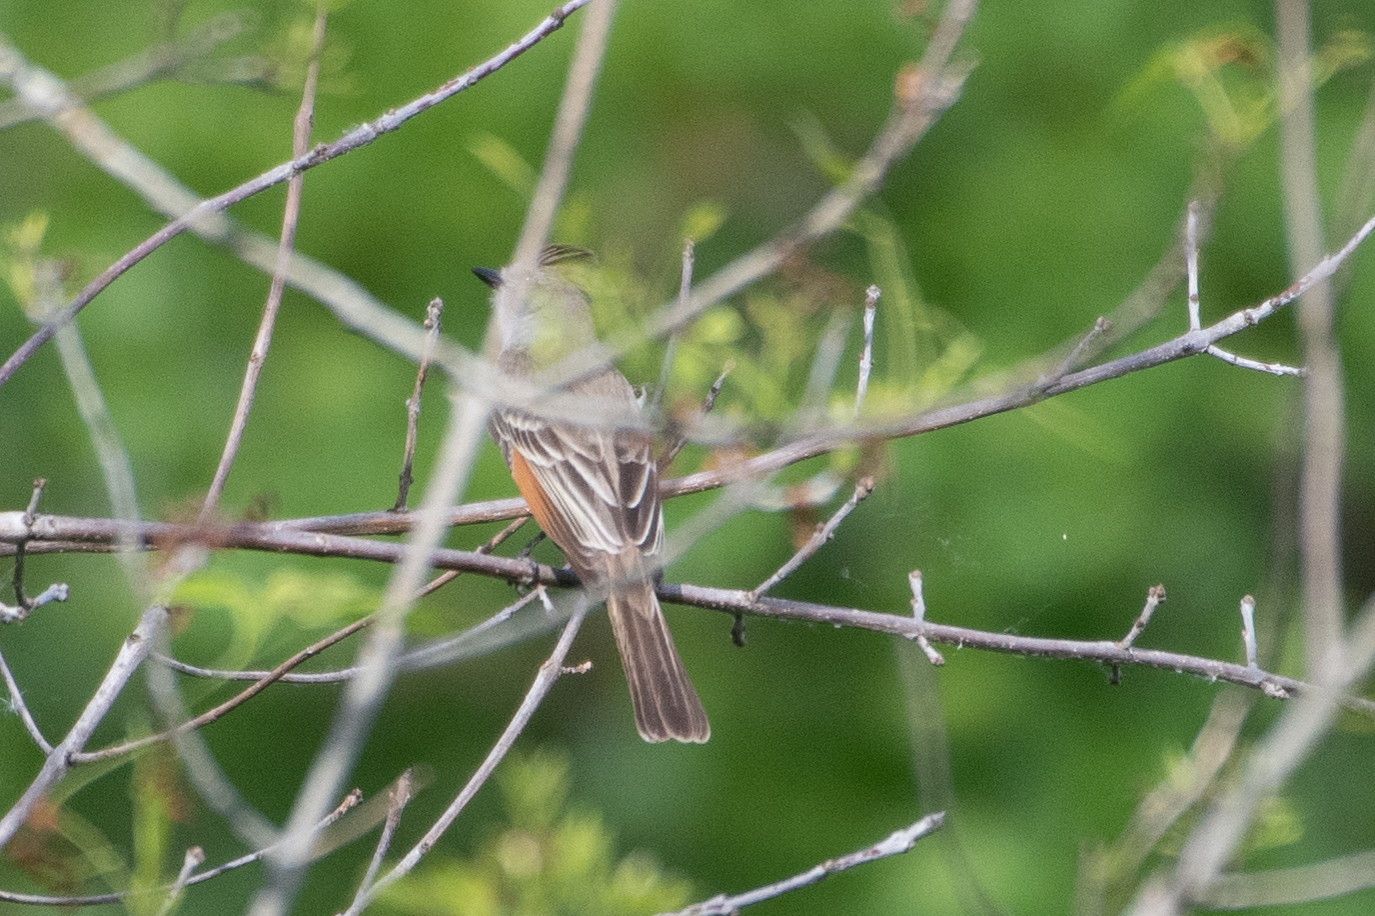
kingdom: Animalia
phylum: Chordata
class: Aves
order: Passeriformes
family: Tyrannidae
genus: Myiarchus
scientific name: Myiarchus cinerascens
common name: Ash-throated flycatcher
